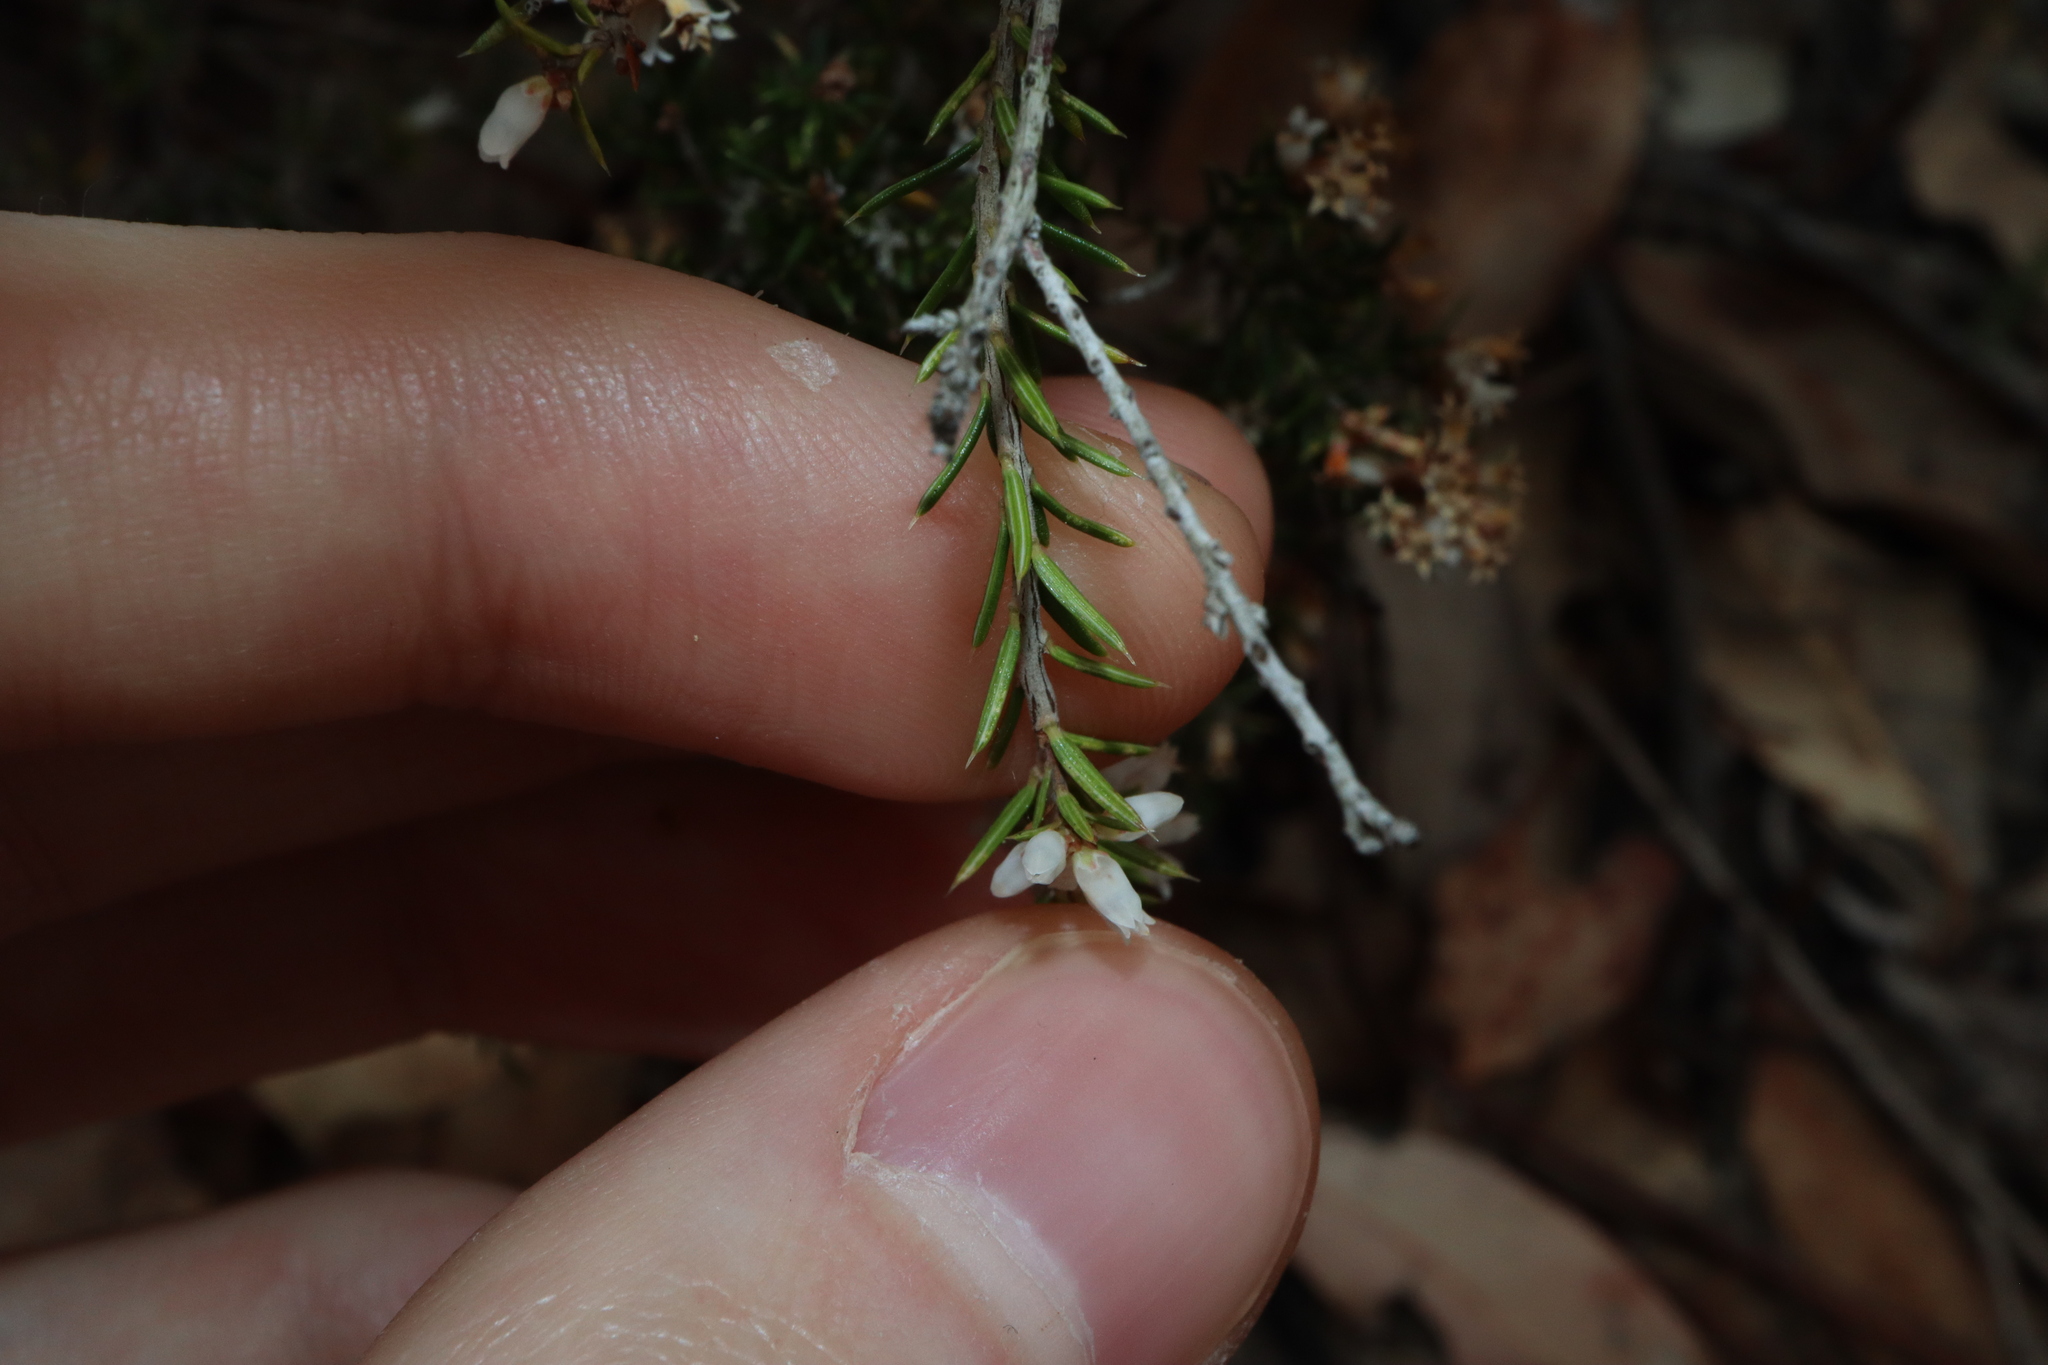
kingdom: Plantae
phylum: Tracheophyta
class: Magnoliopsida
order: Ericales
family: Ericaceae
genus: Lissanthe
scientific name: Lissanthe strigosa
